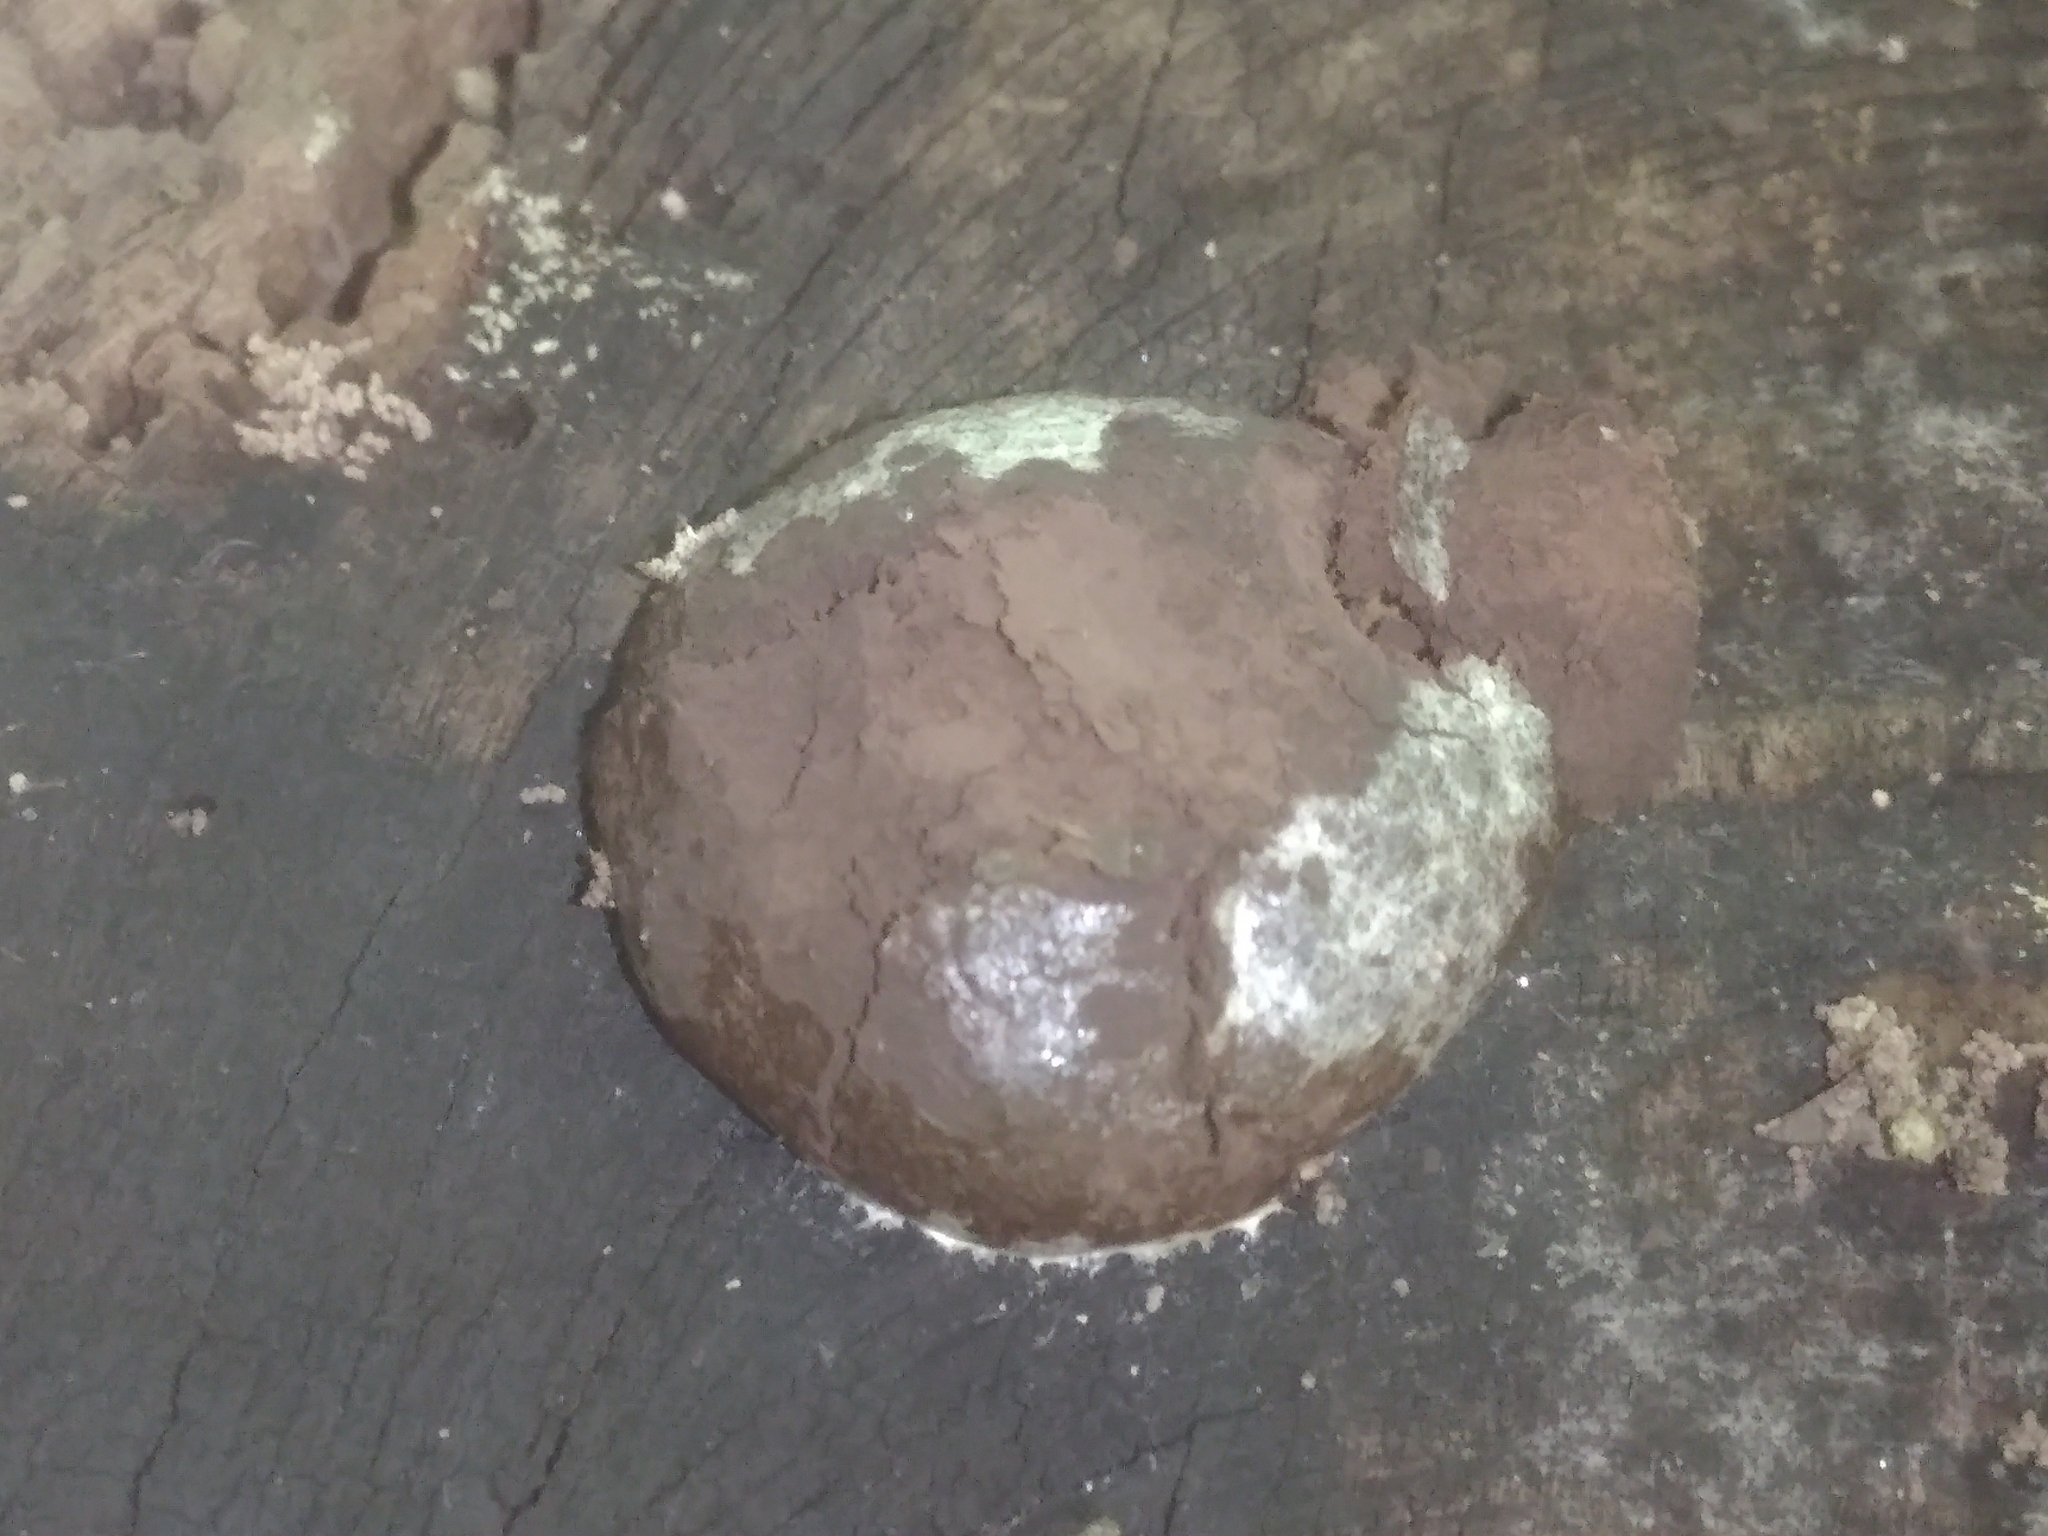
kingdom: Protozoa
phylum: Mycetozoa
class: Myxomycetes
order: Cribrariales
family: Tubiferaceae
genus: Reticularia
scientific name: Reticularia lycoperdon
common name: False puffball
